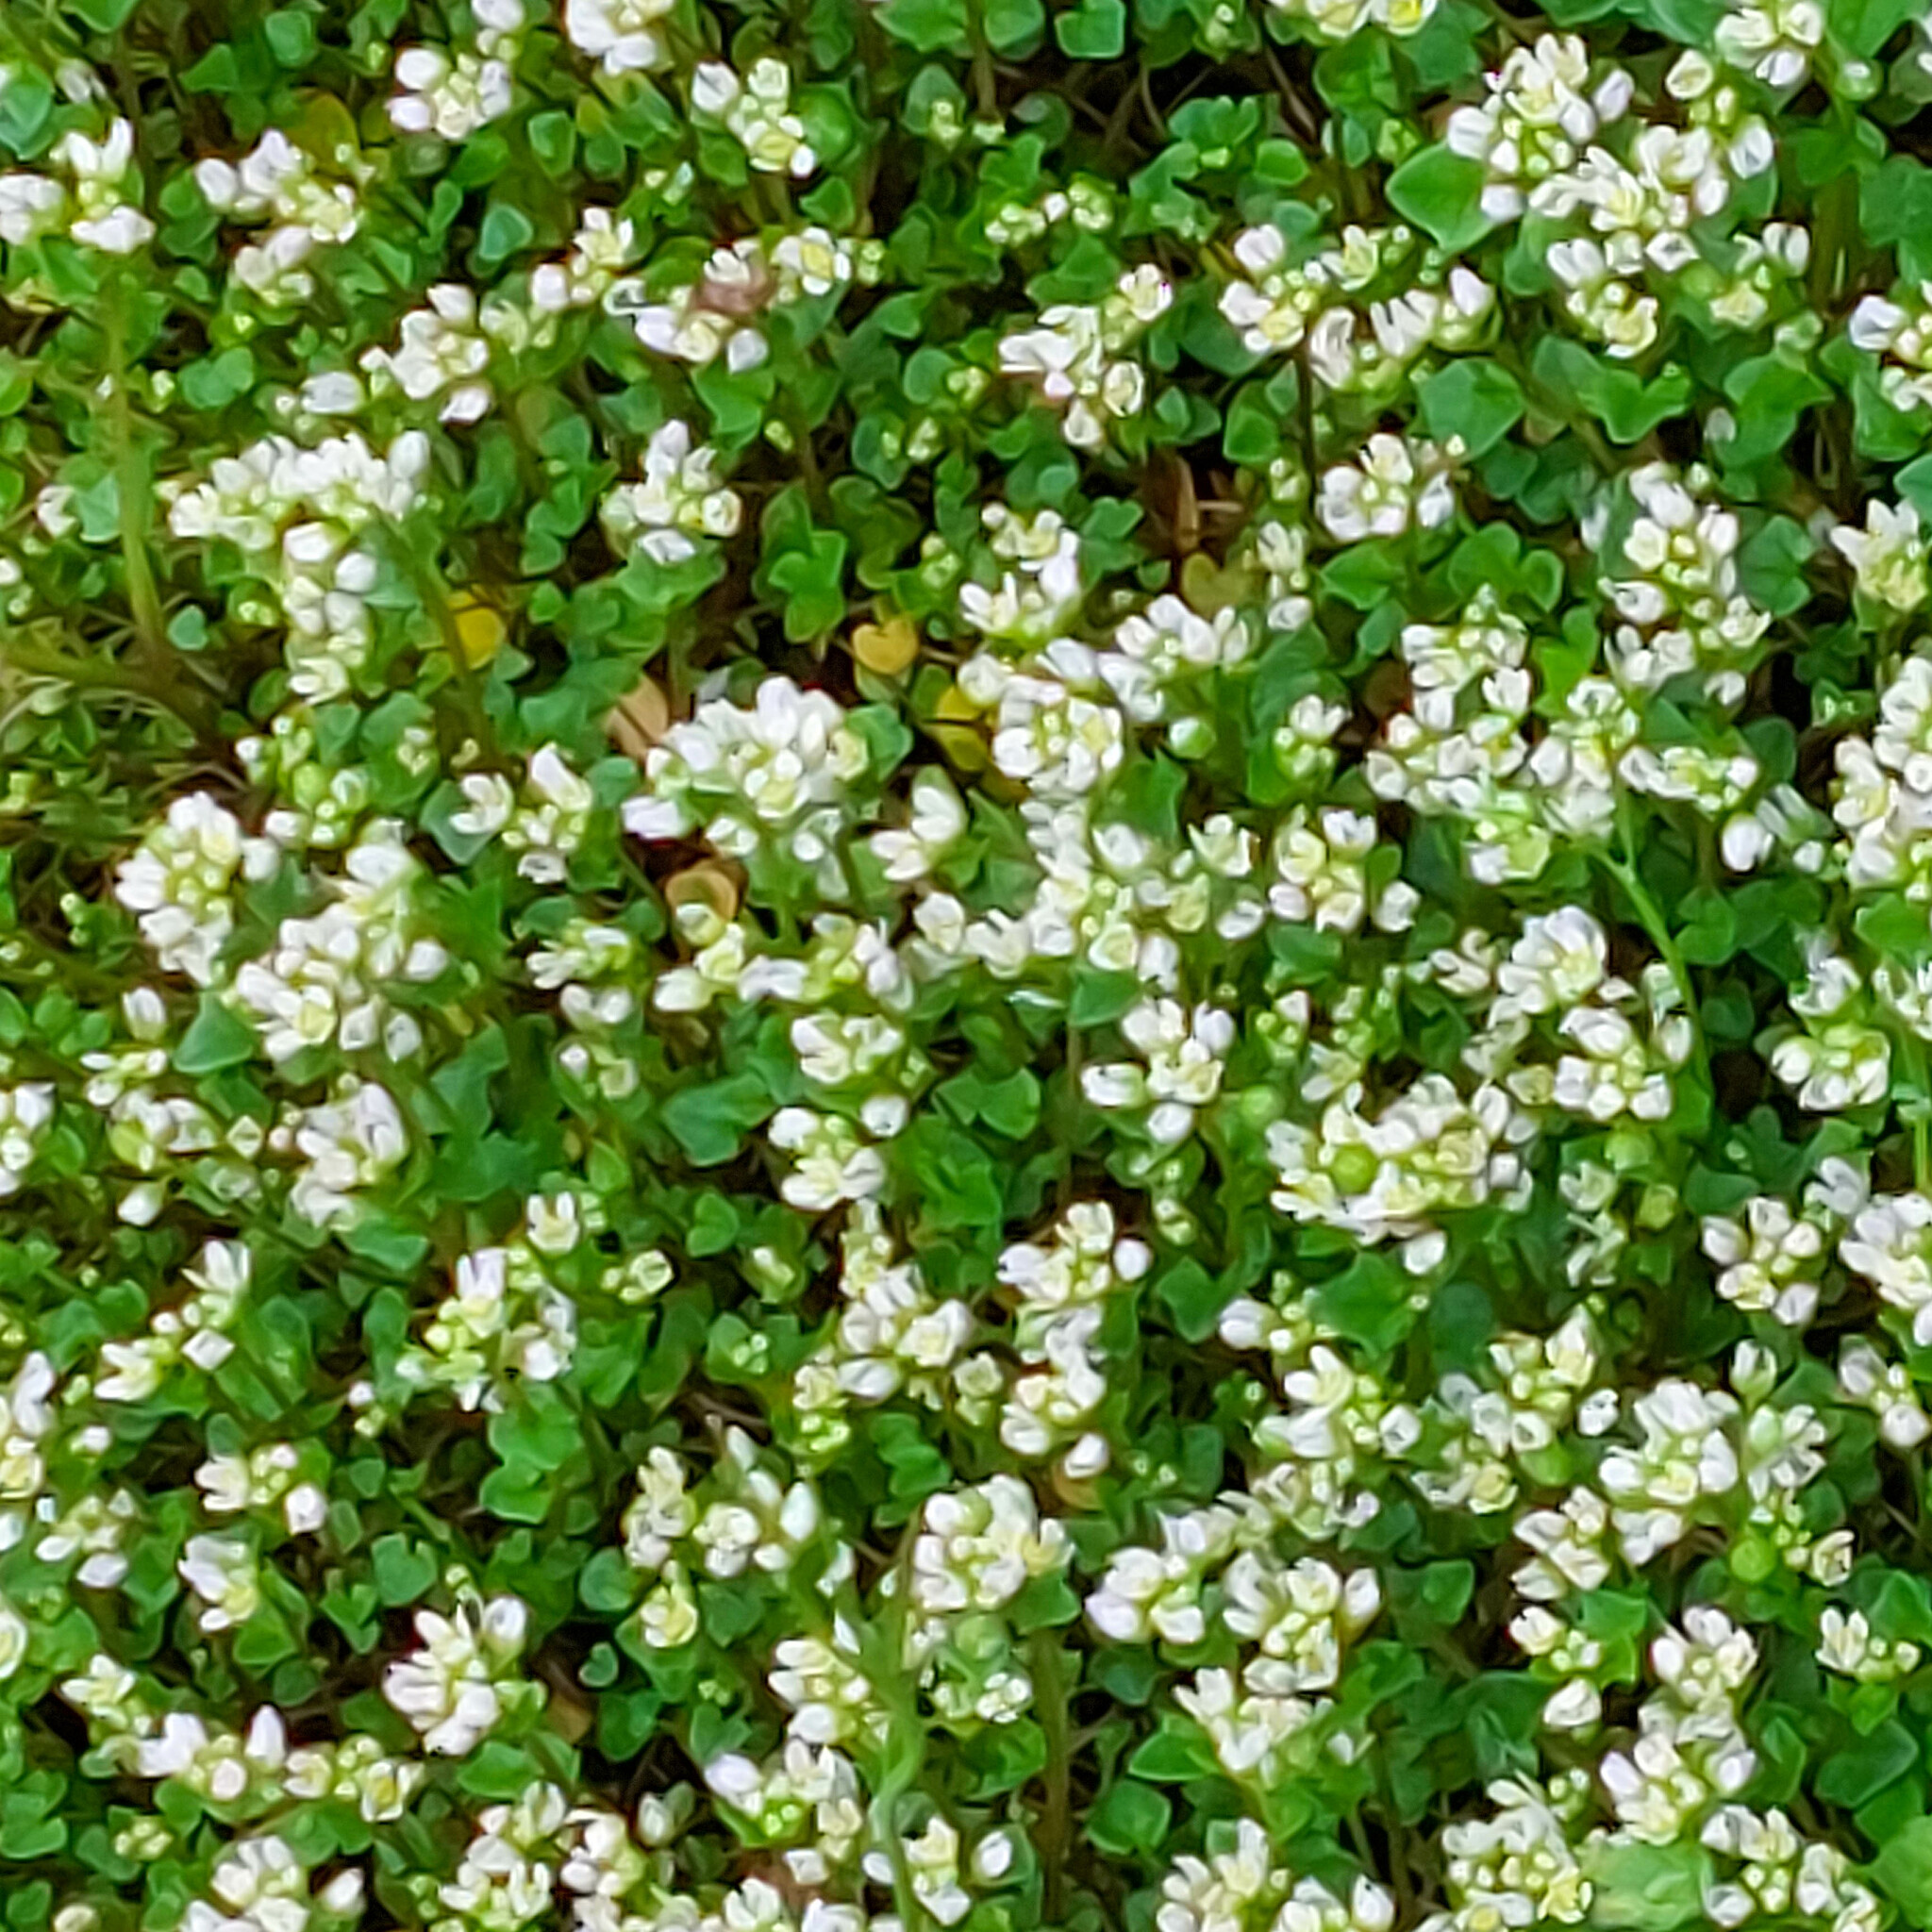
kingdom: Plantae
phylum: Tracheophyta
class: Magnoliopsida
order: Brassicales
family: Brassicaceae
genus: Cochlearia
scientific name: Cochlearia danica
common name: Early scurvygrass
